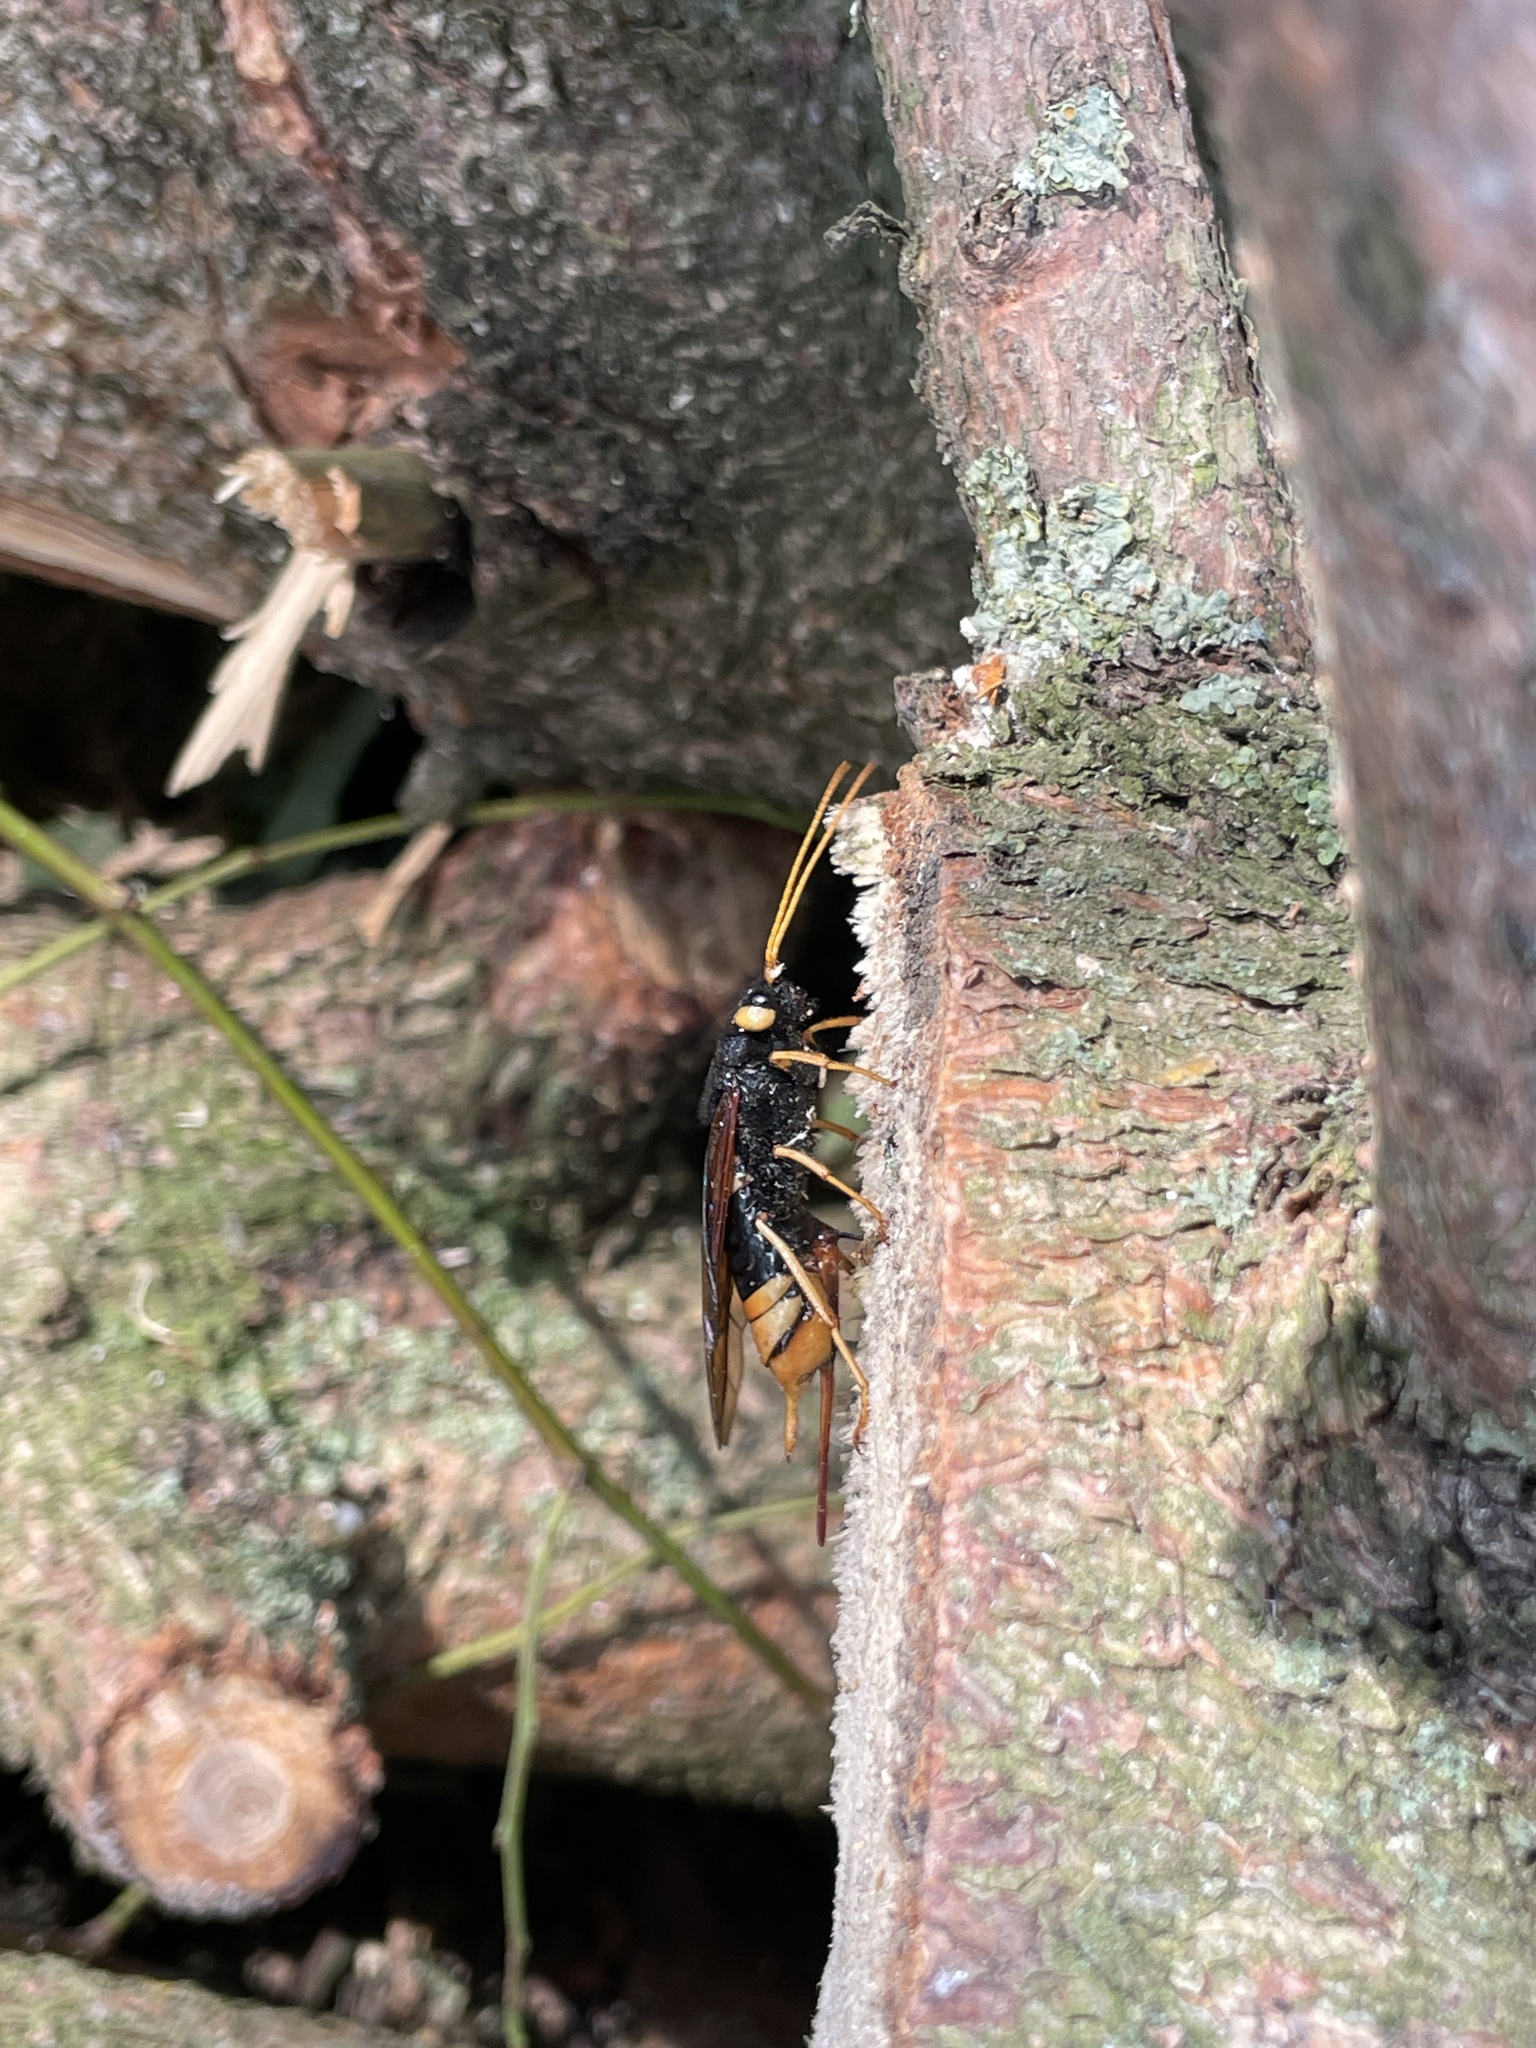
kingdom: Animalia
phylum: Arthropoda
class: Insecta
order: Hymenoptera
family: Siricidae
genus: Urocerus
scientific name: Urocerus gigas
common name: Giant woodwasp
